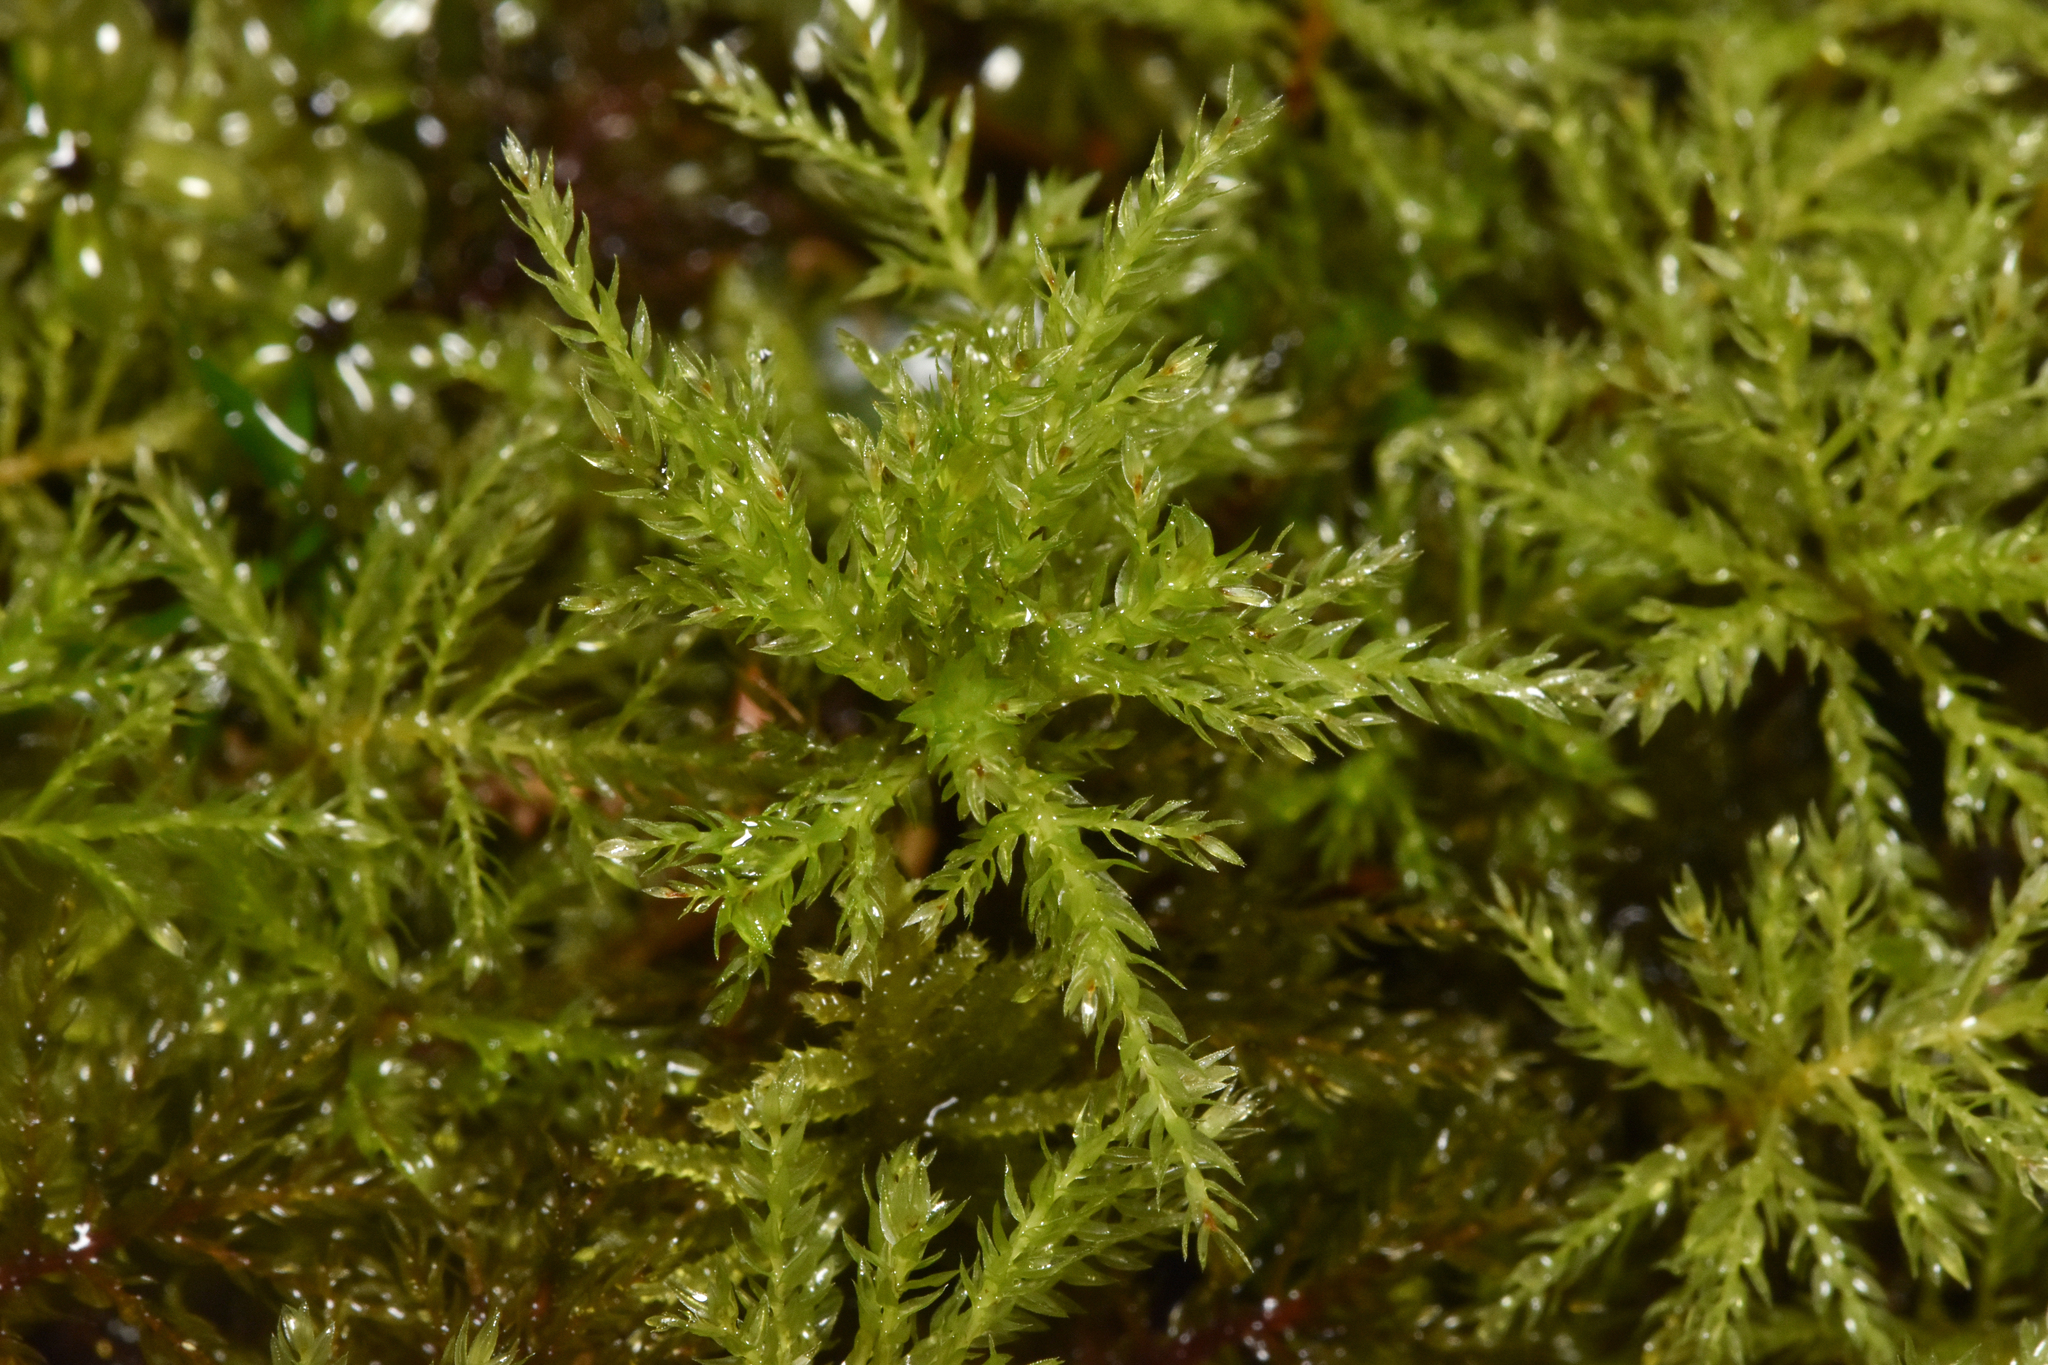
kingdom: Plantae
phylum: Bryophyta
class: Bryopsida
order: Bryales
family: Mniaceae
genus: Leucolepis
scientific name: Leucolepis acanthoneura
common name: Leucolepis umbrella moss
